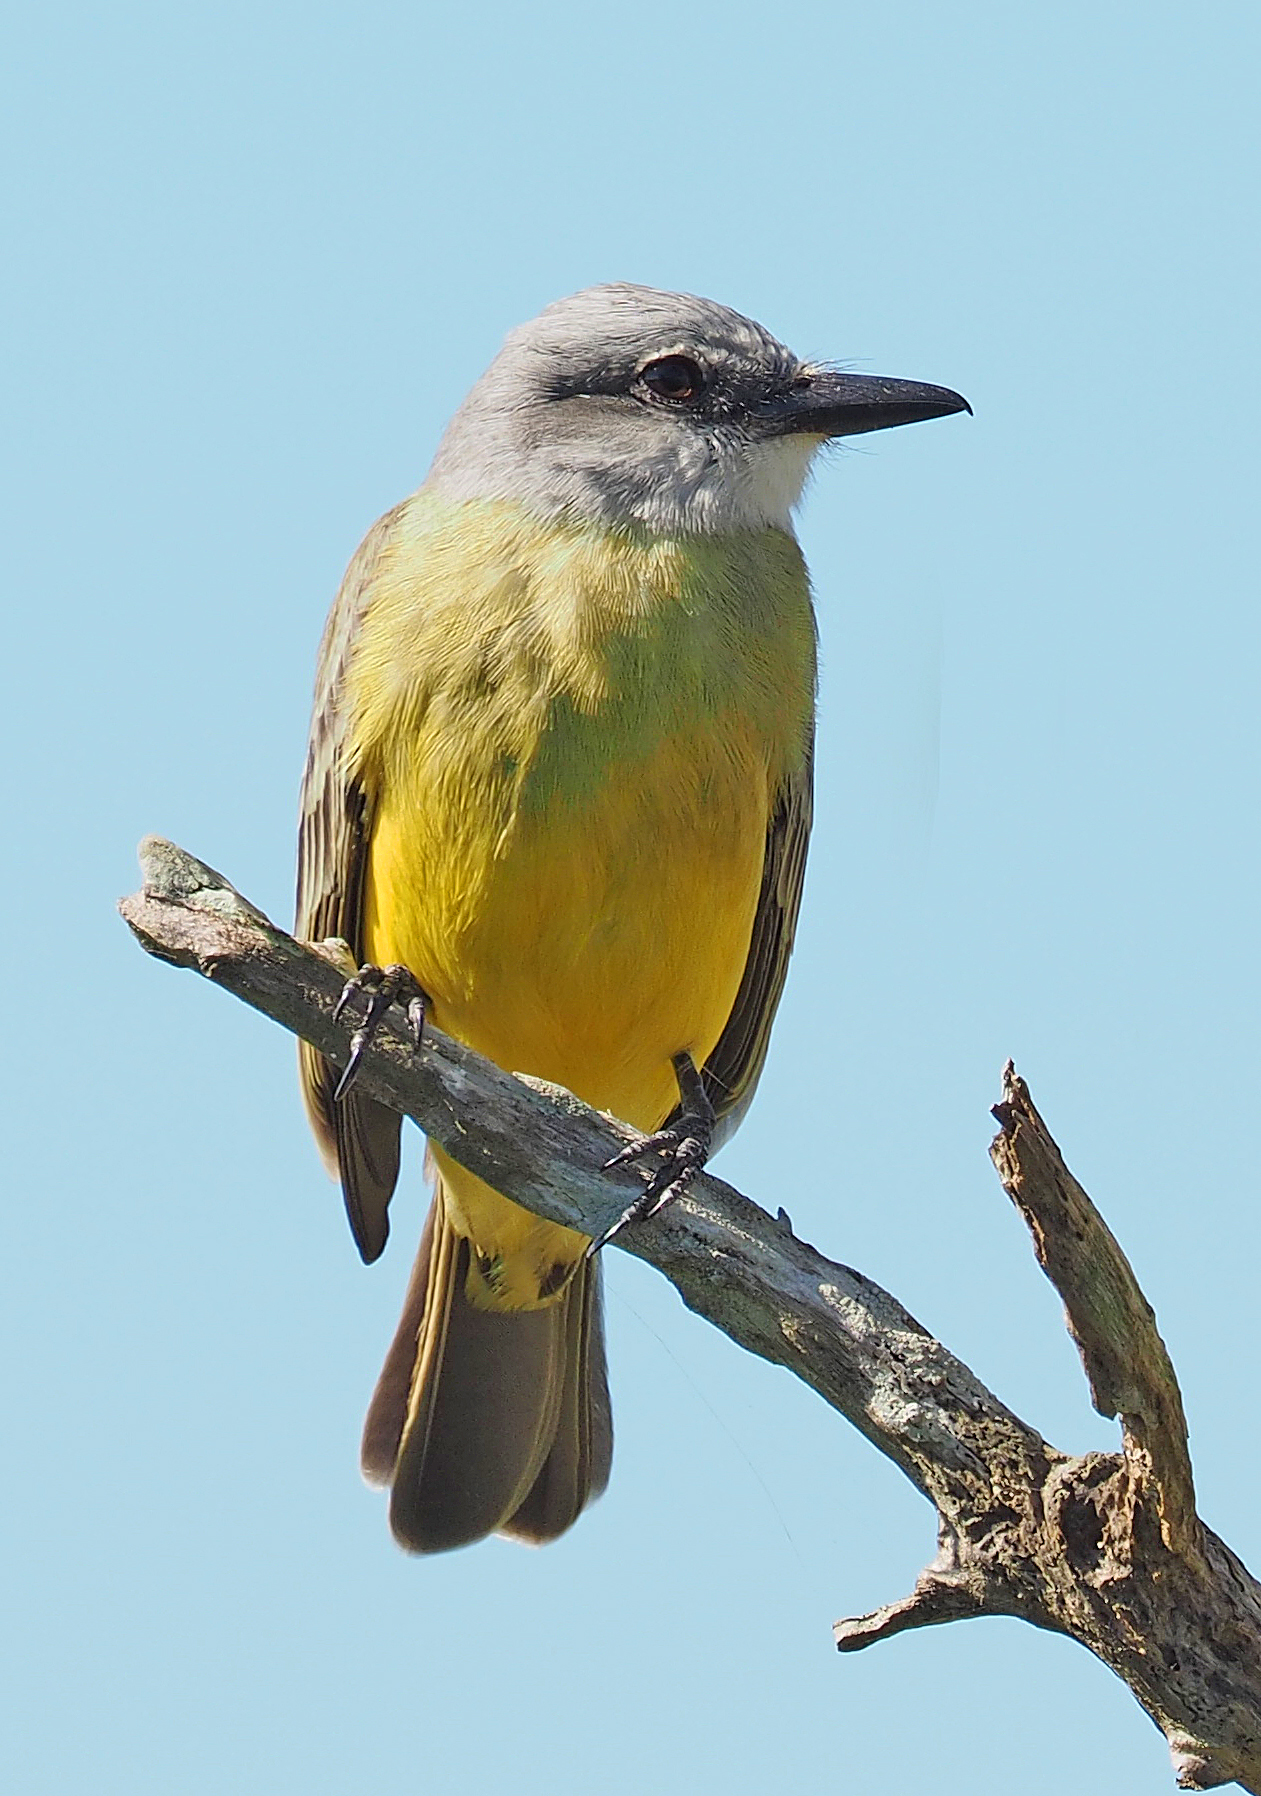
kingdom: Animalia
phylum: Chordata
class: Aves
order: Passeriformes
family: Tyrannidae
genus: Tyrannus
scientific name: Tyrannus melancholicus
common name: Tropical kingbird
